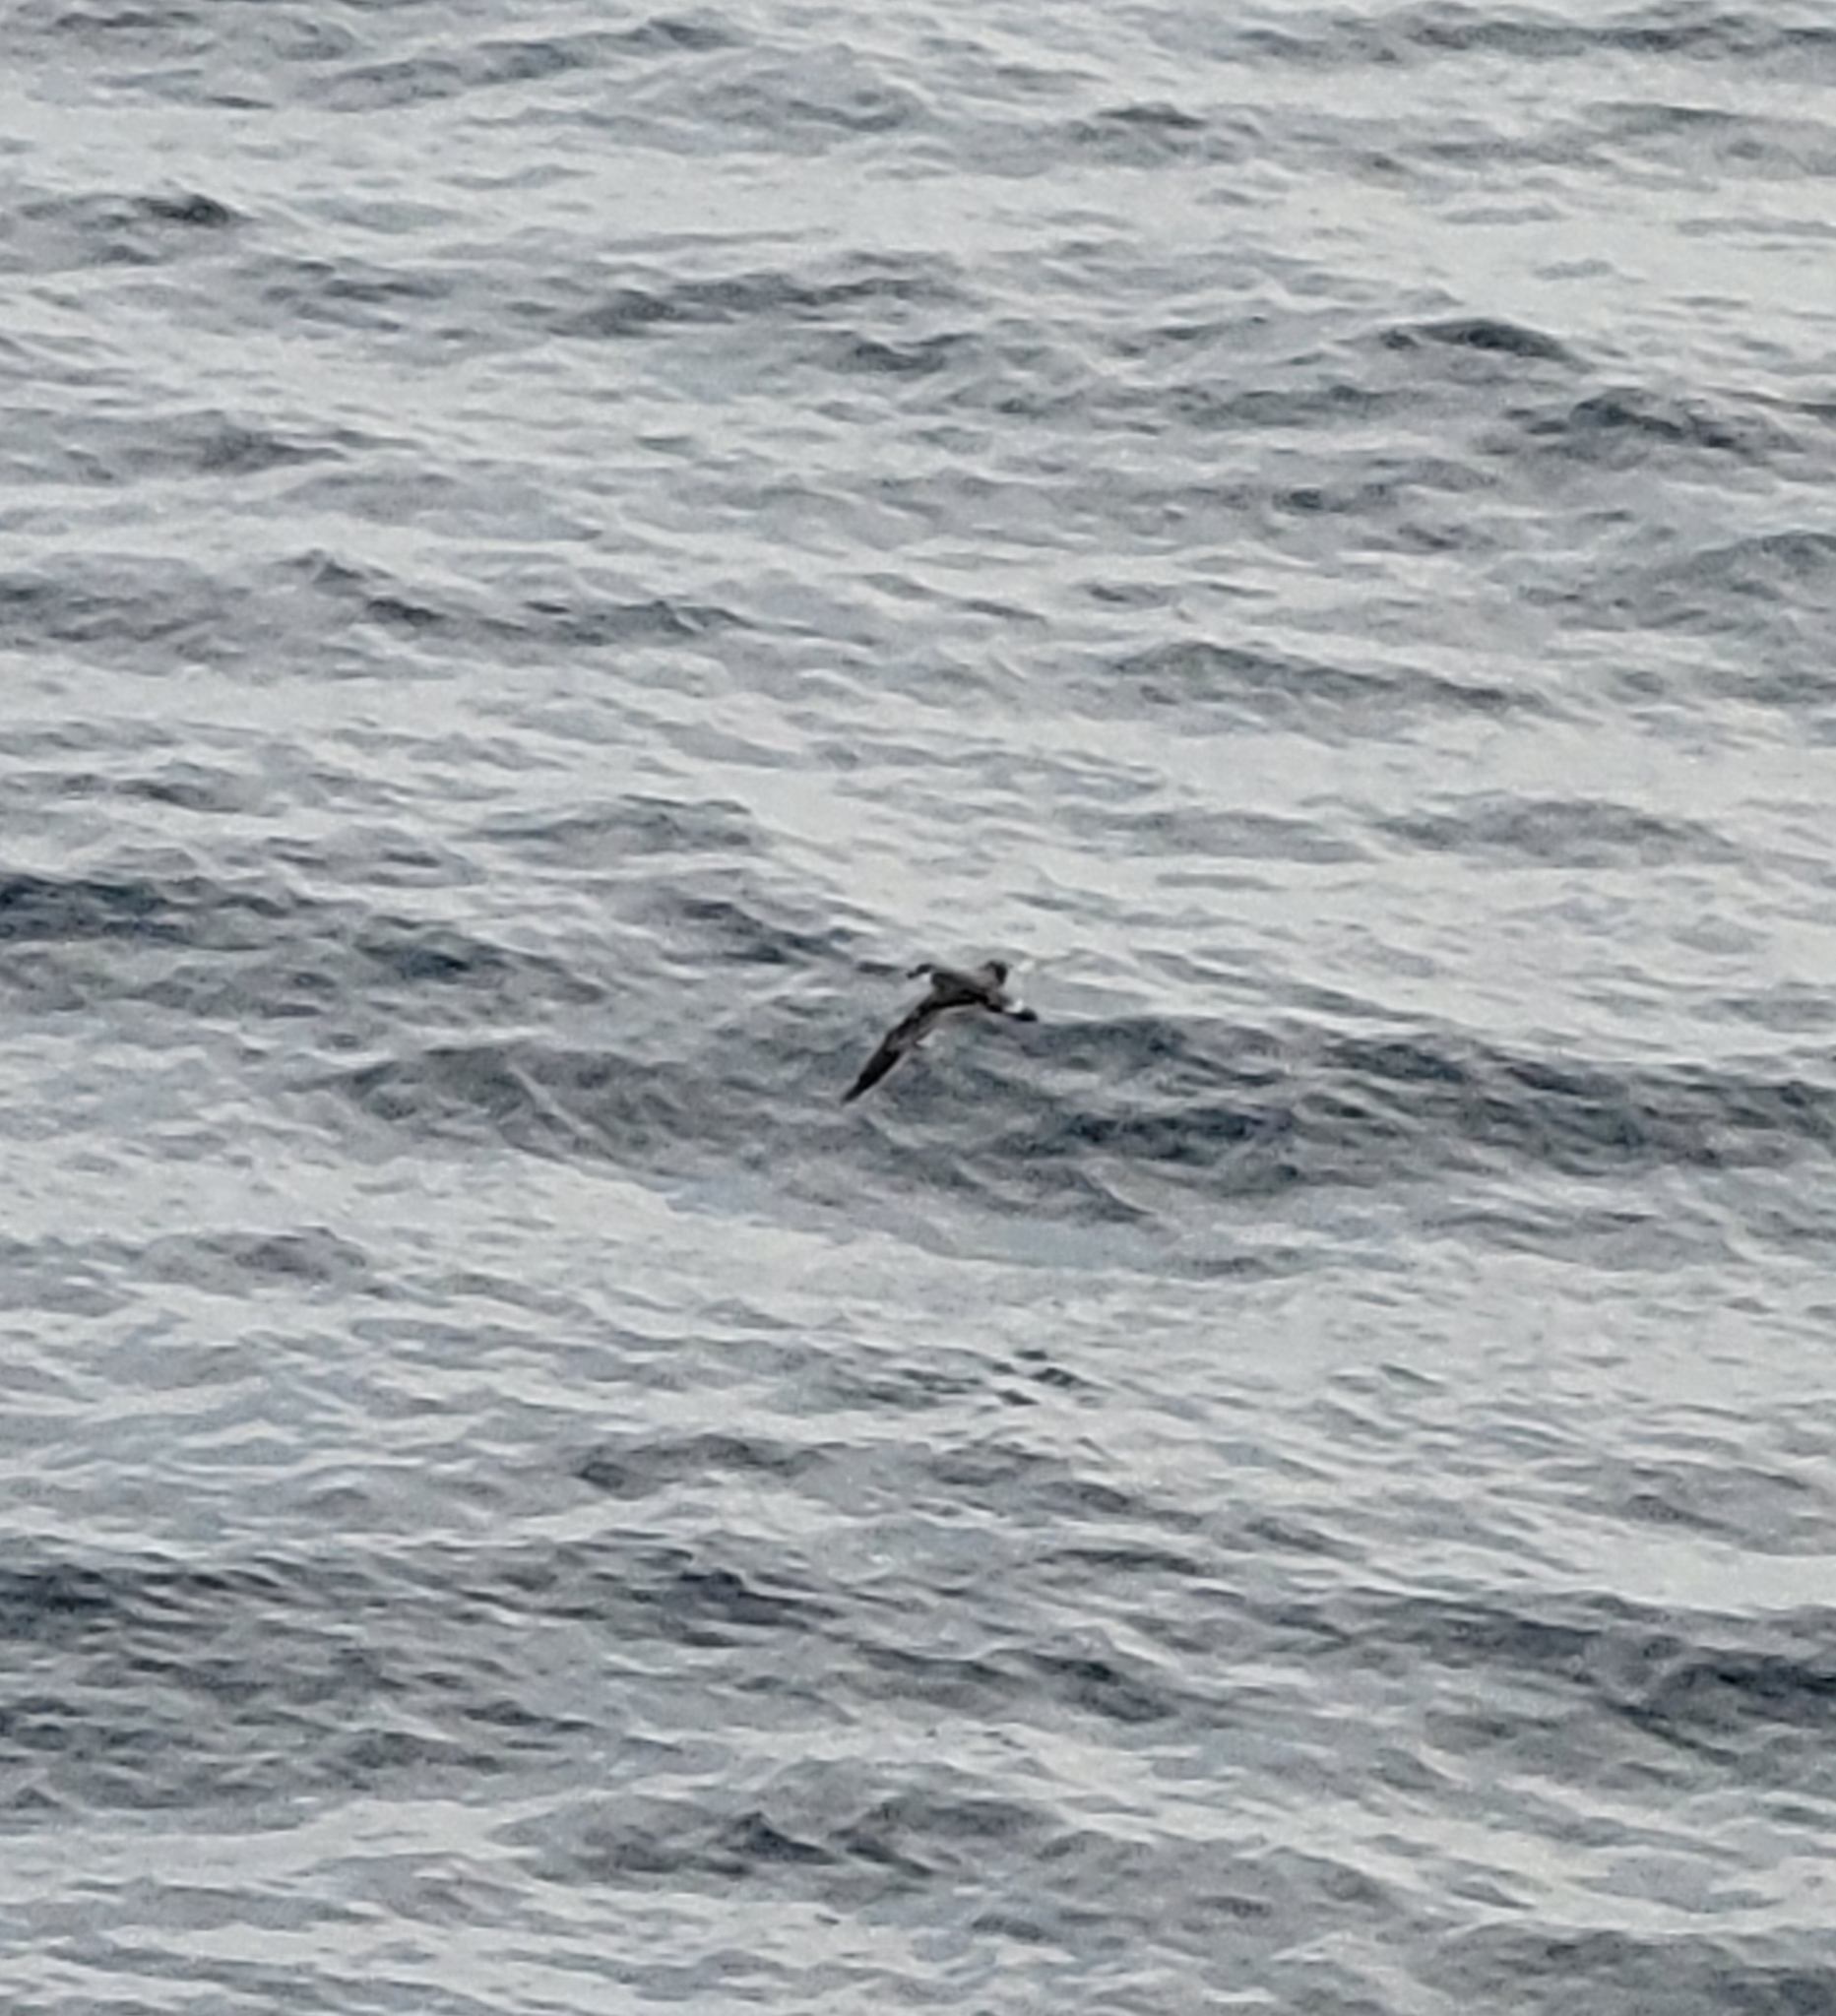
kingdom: Animalia
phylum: Chordata
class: Aves
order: Procellariiformes
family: Procellariidae
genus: Puffinus
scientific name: Puffinus gravis
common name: Great shearwater
